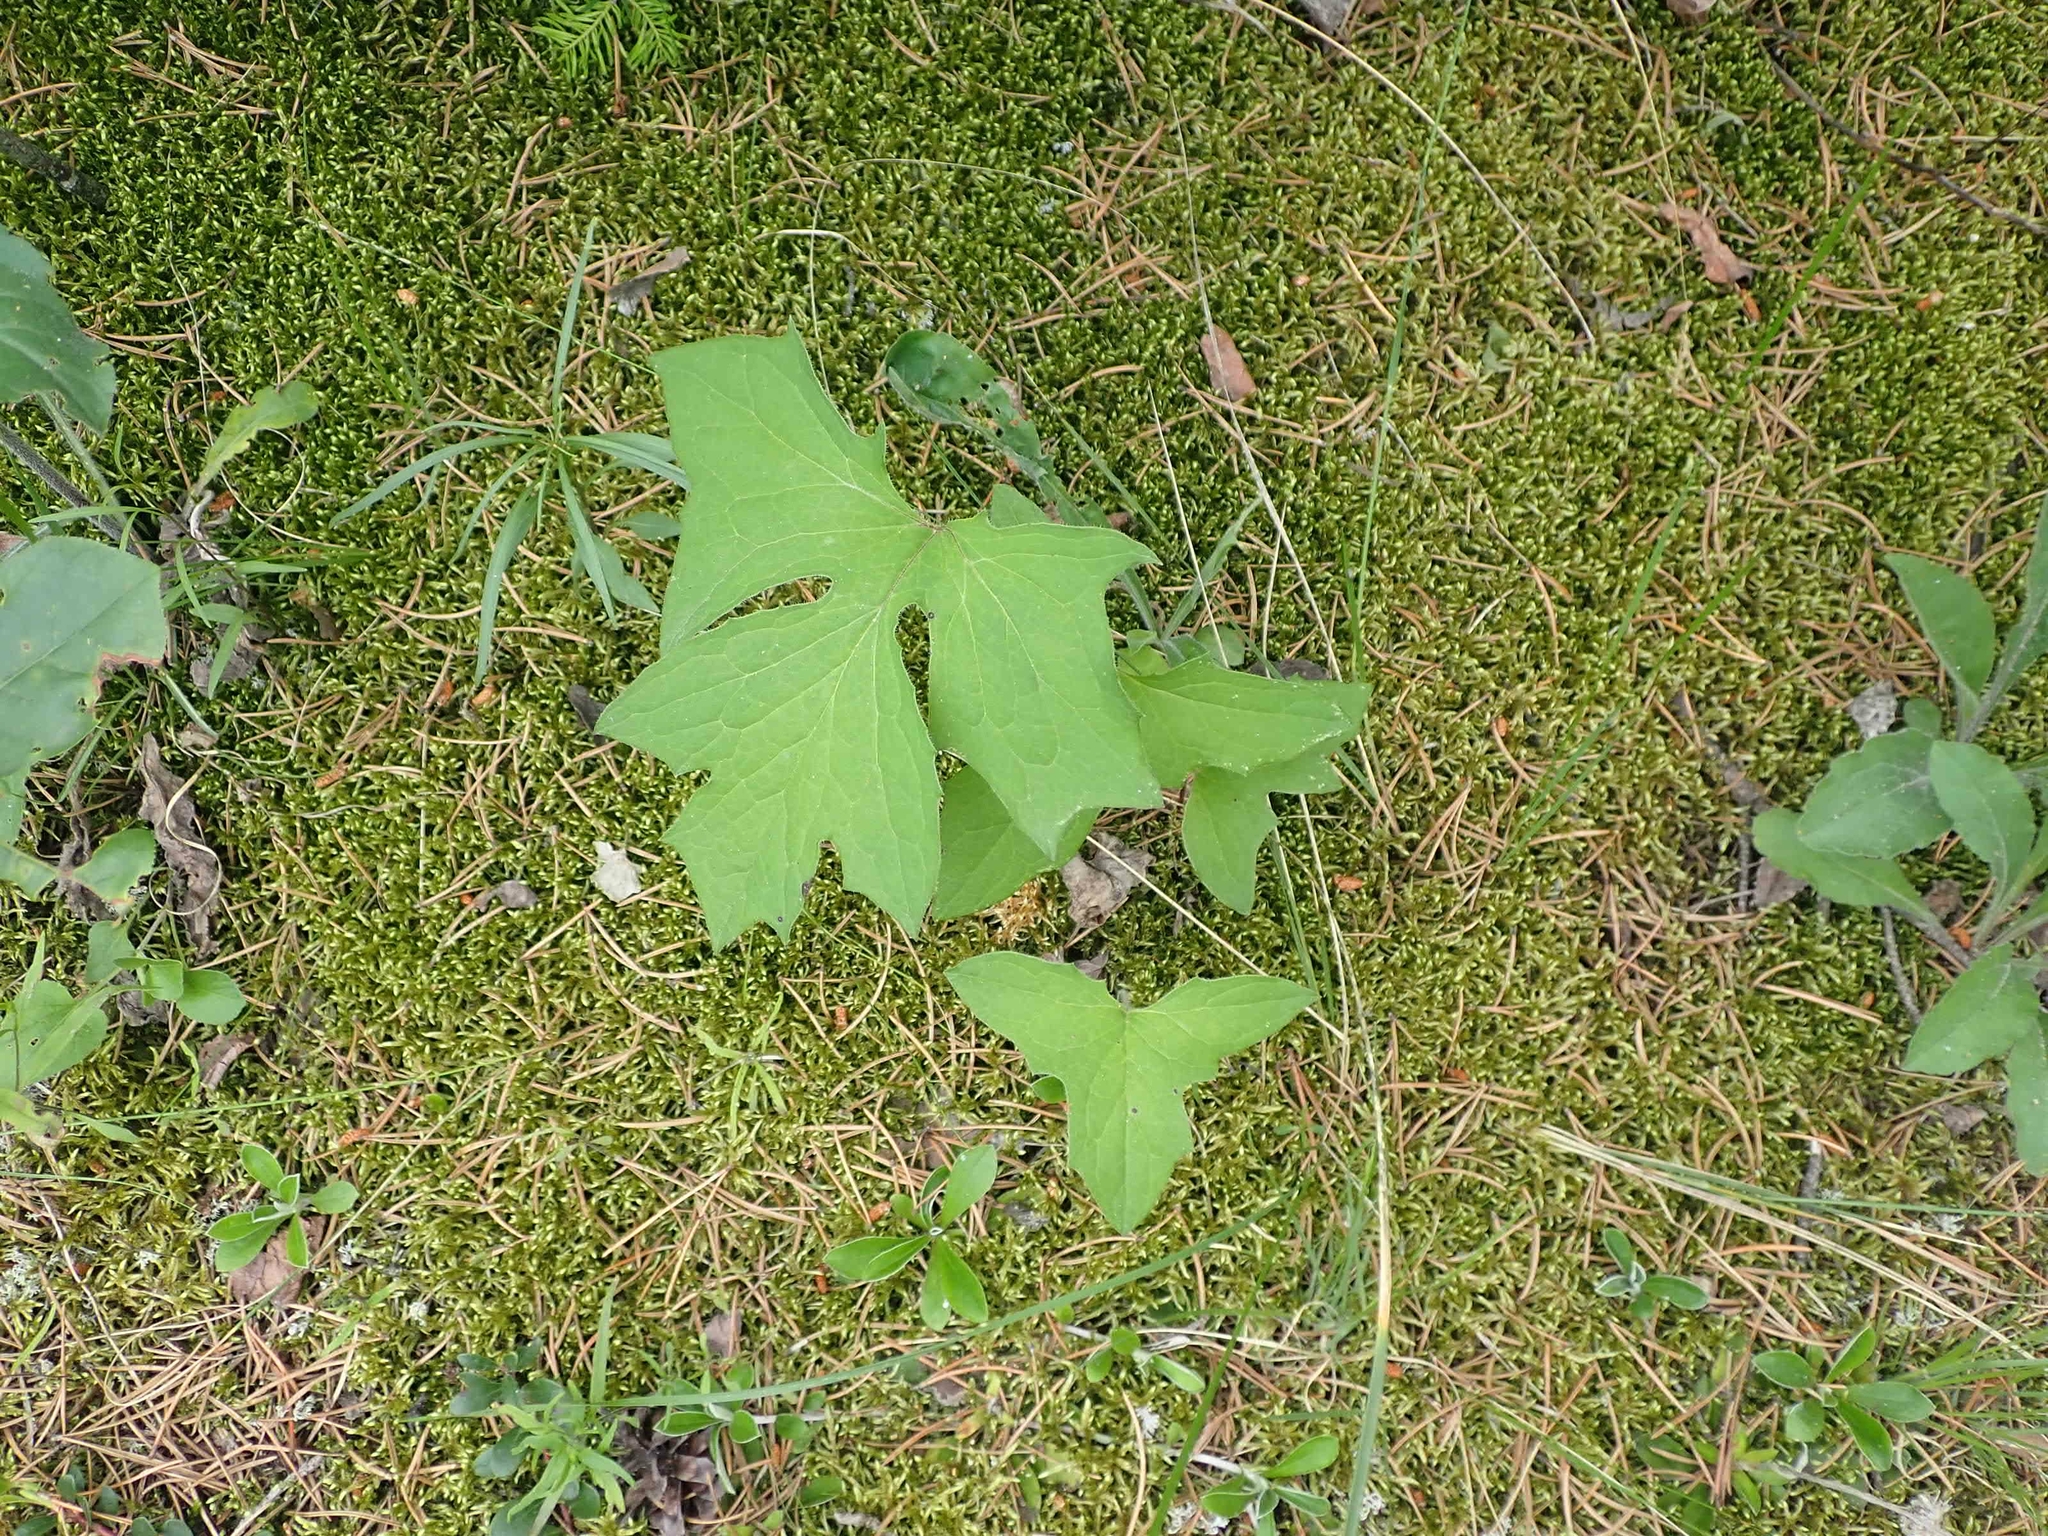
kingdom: Plantae
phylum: Tracheophyta
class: Magnoliopsida
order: Asterales
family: Asteraceae
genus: Nabalus
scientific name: Nabalus albus
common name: White rattlesnakeroot
